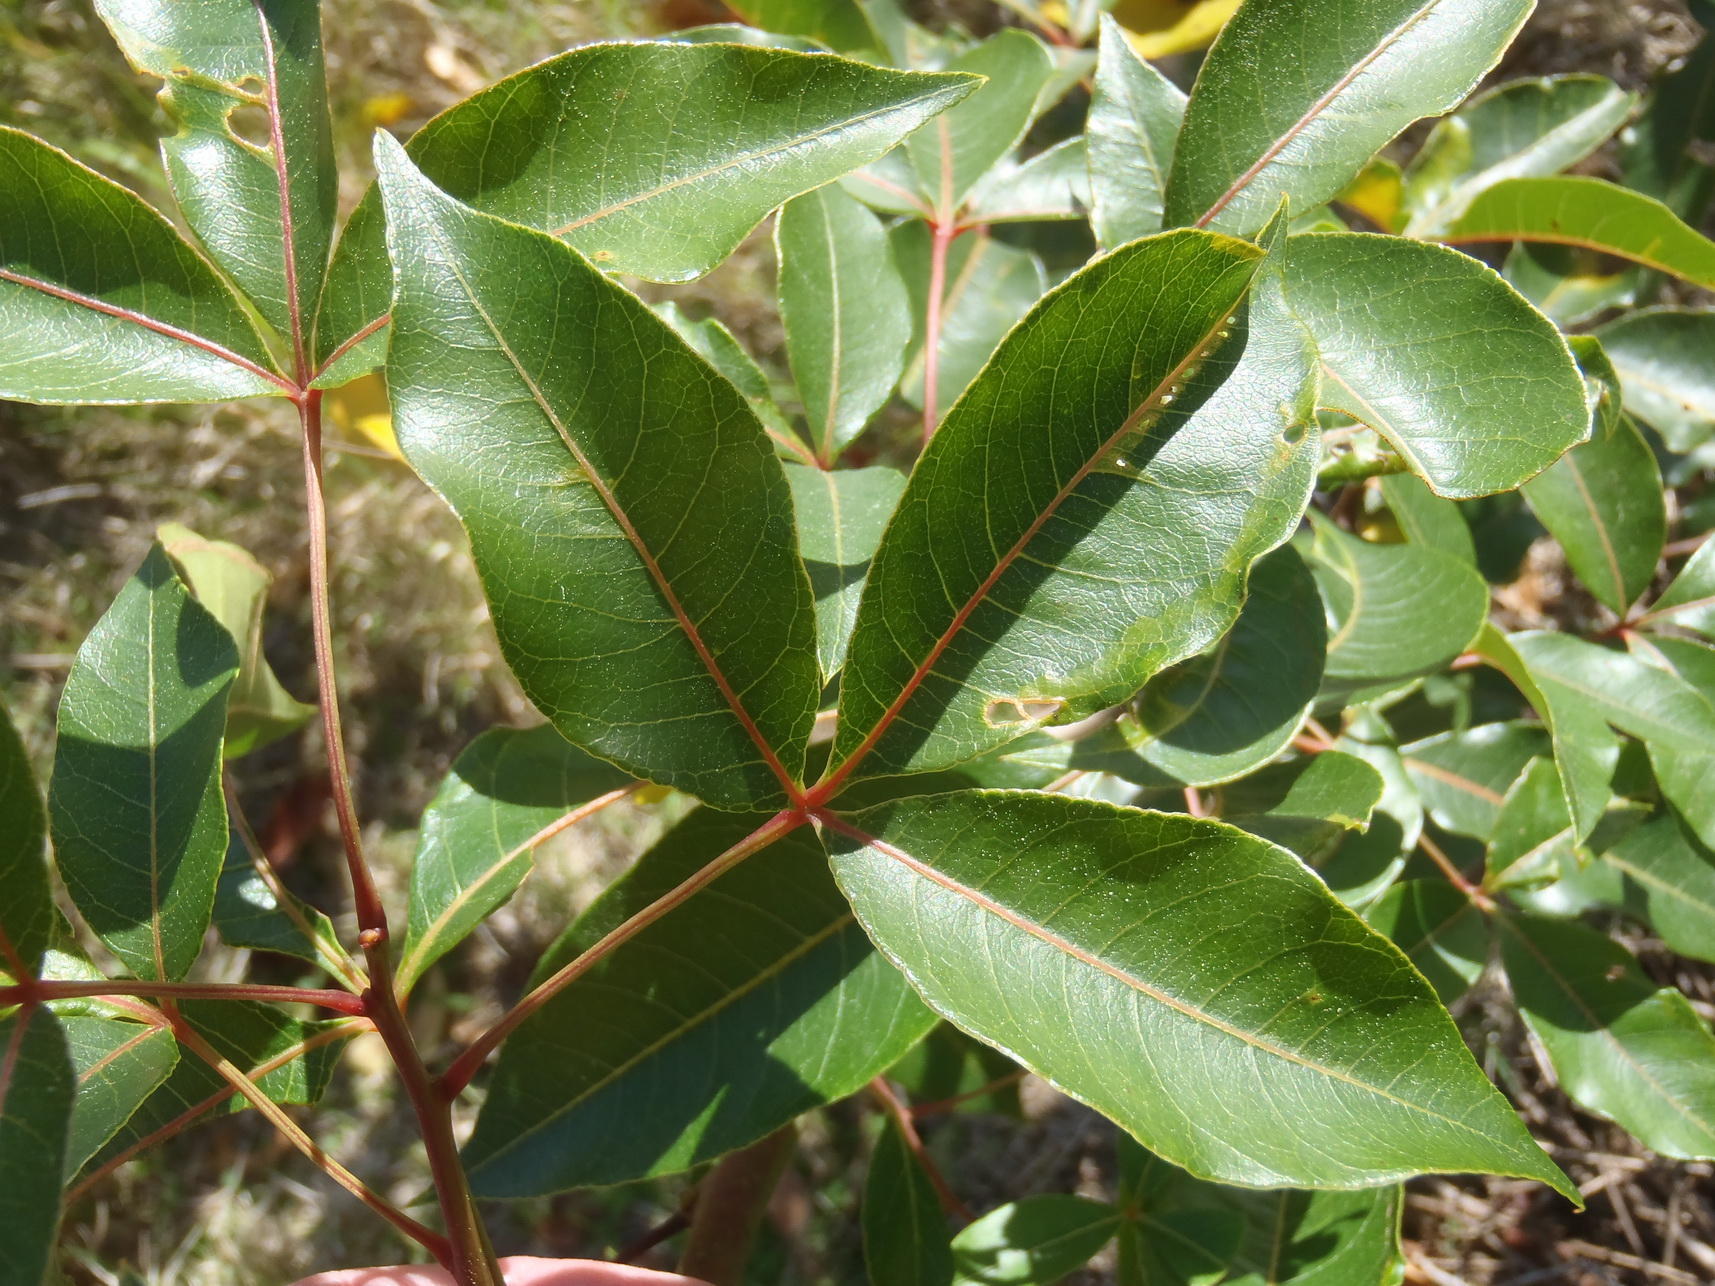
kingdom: Plantae
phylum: Tracheophyta
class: Magnoliopsida
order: Sapindales
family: Anacardiaceae
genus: Searsia
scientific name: Searsia chirindensis
